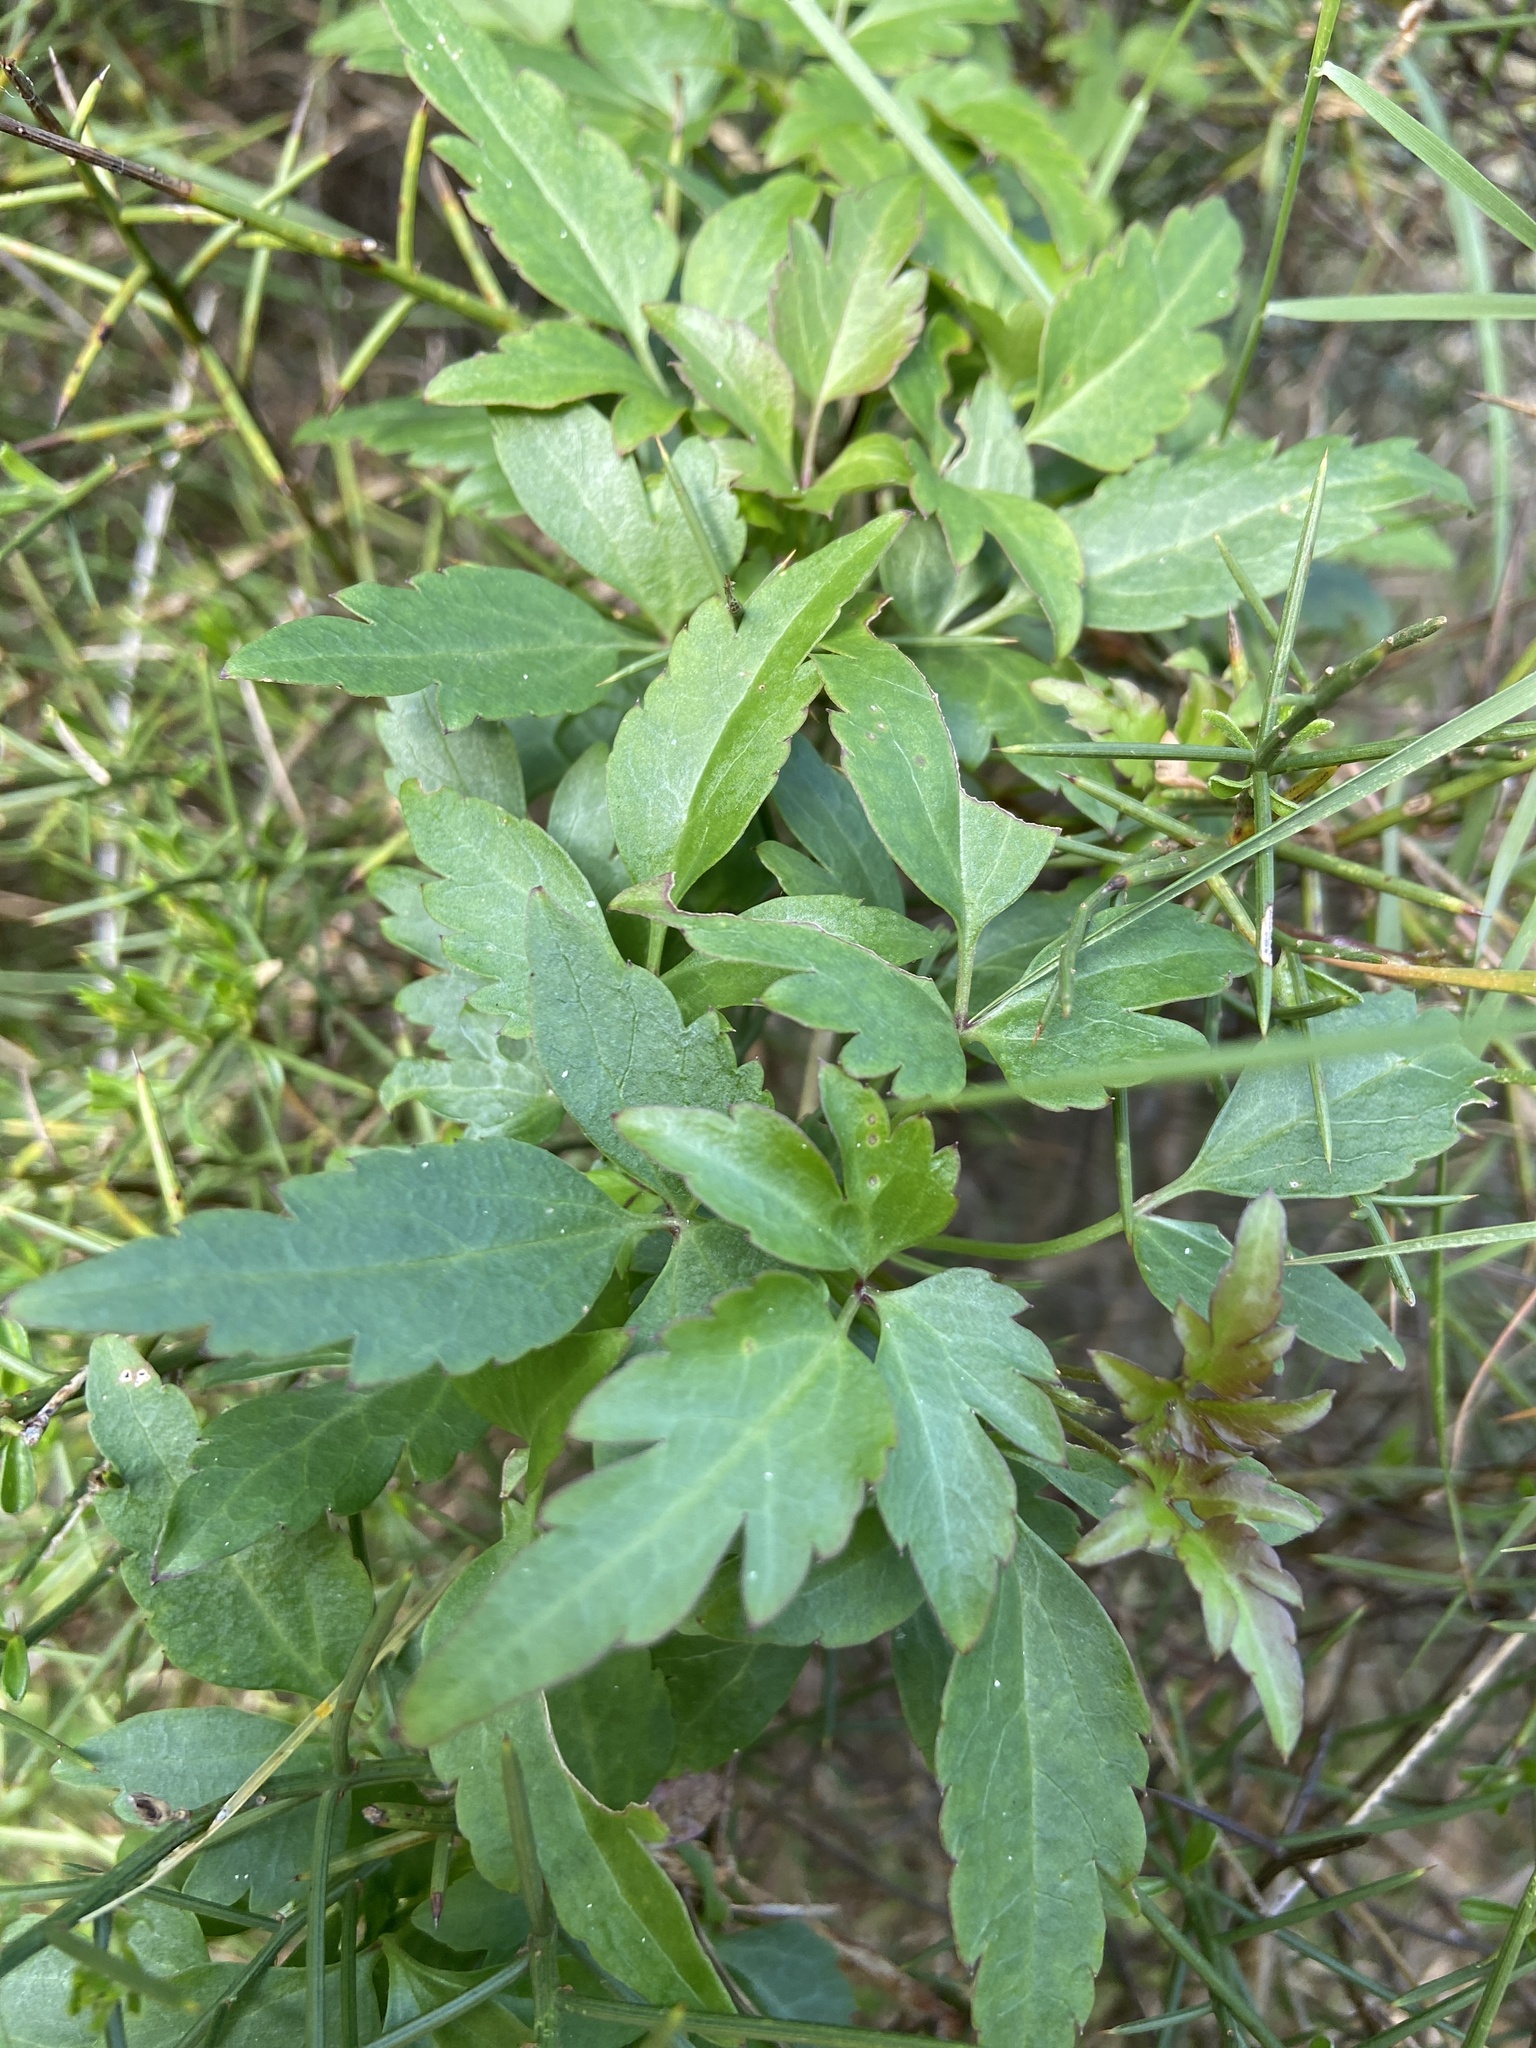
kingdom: Plantae
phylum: Tracheophyta
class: Magnoliopsida
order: Ranunculales
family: Ranunculaceae
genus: Clematis
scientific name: Clematis cirrhosa
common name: Early virgin's-bower
